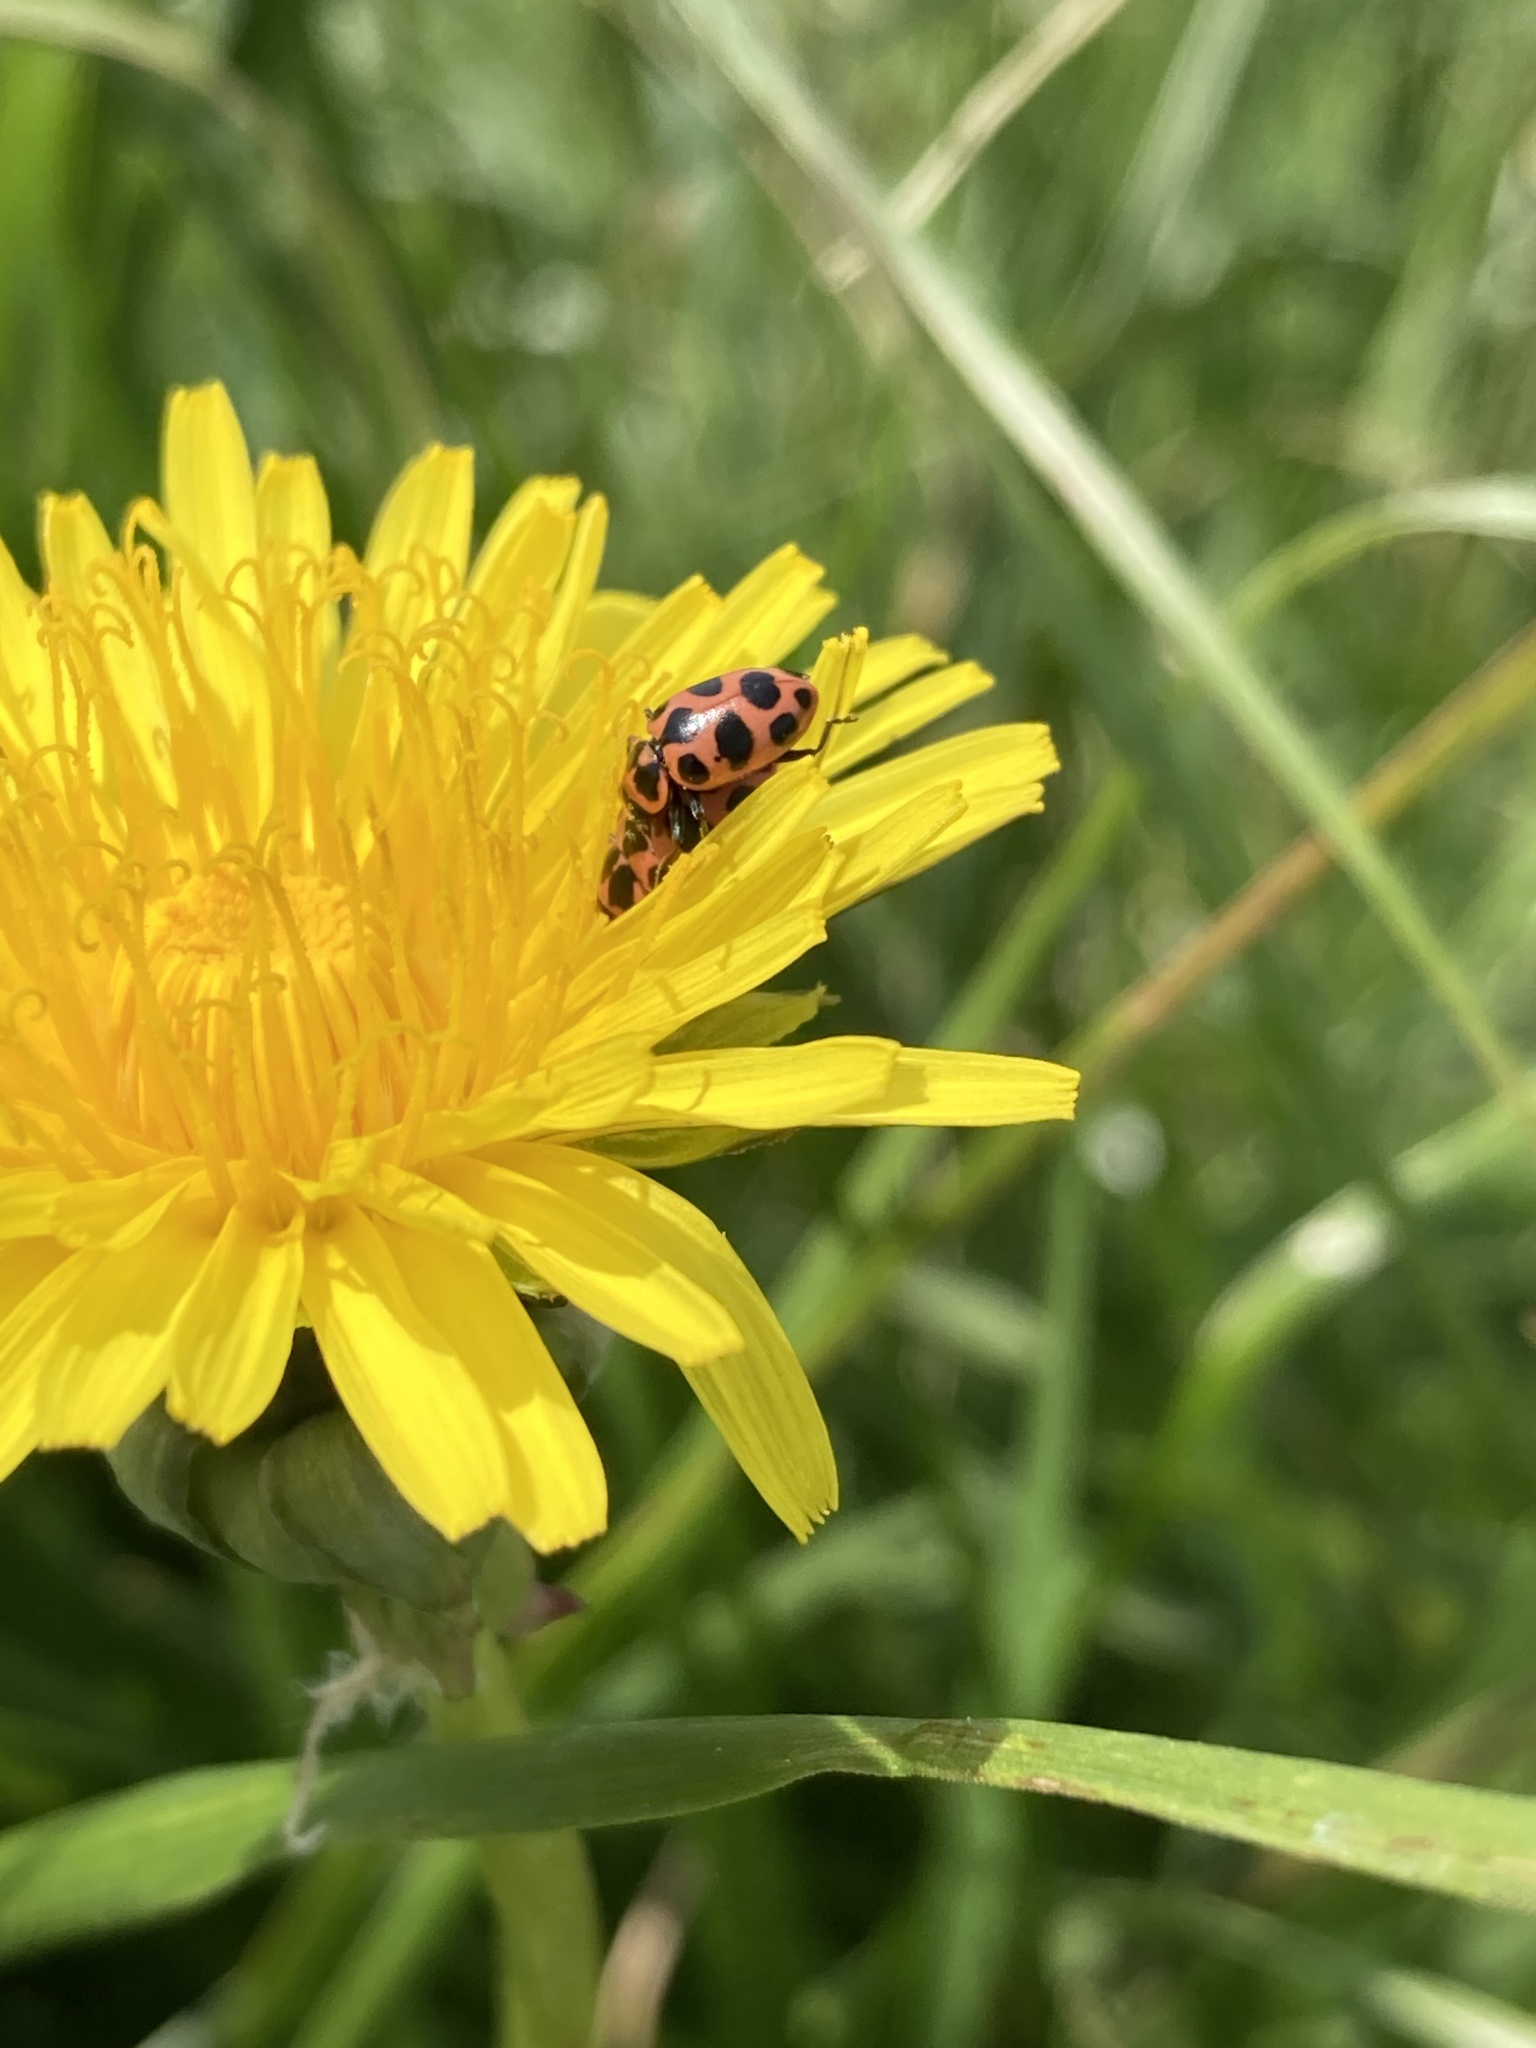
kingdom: Animalia
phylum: Arthropoda
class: Insecta
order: Coleoptera
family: Coccinellidae
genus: Coleomegilla
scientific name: Coleomegilla maculata
